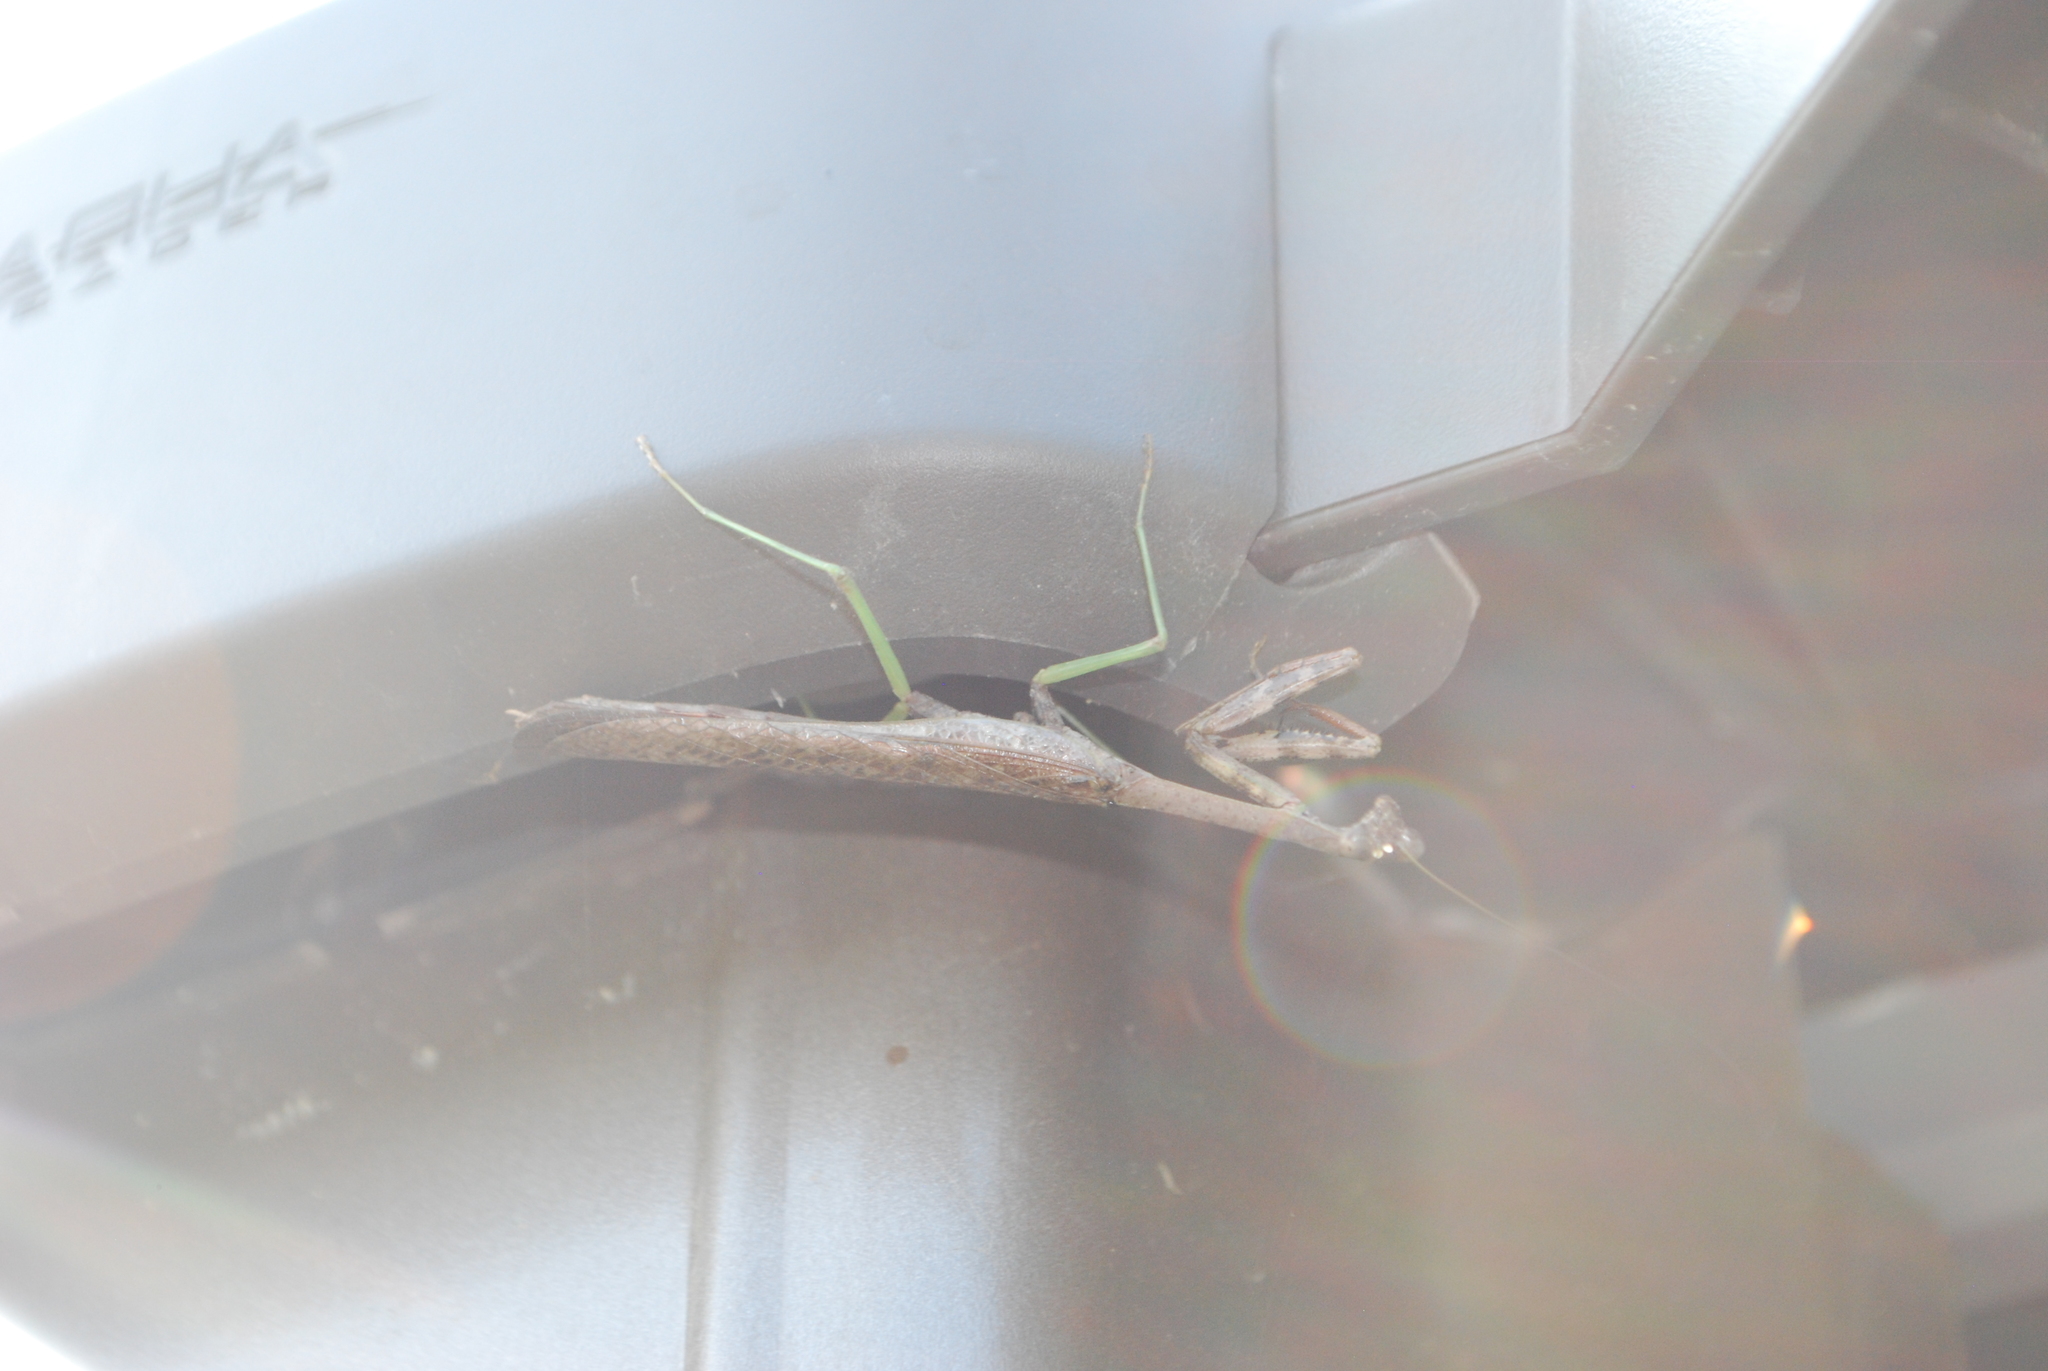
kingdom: Animalia
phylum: Arthropoda
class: Insecta
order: Mantodea
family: Mantidae
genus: Stagmomantis
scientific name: Stagmomantis carolina
